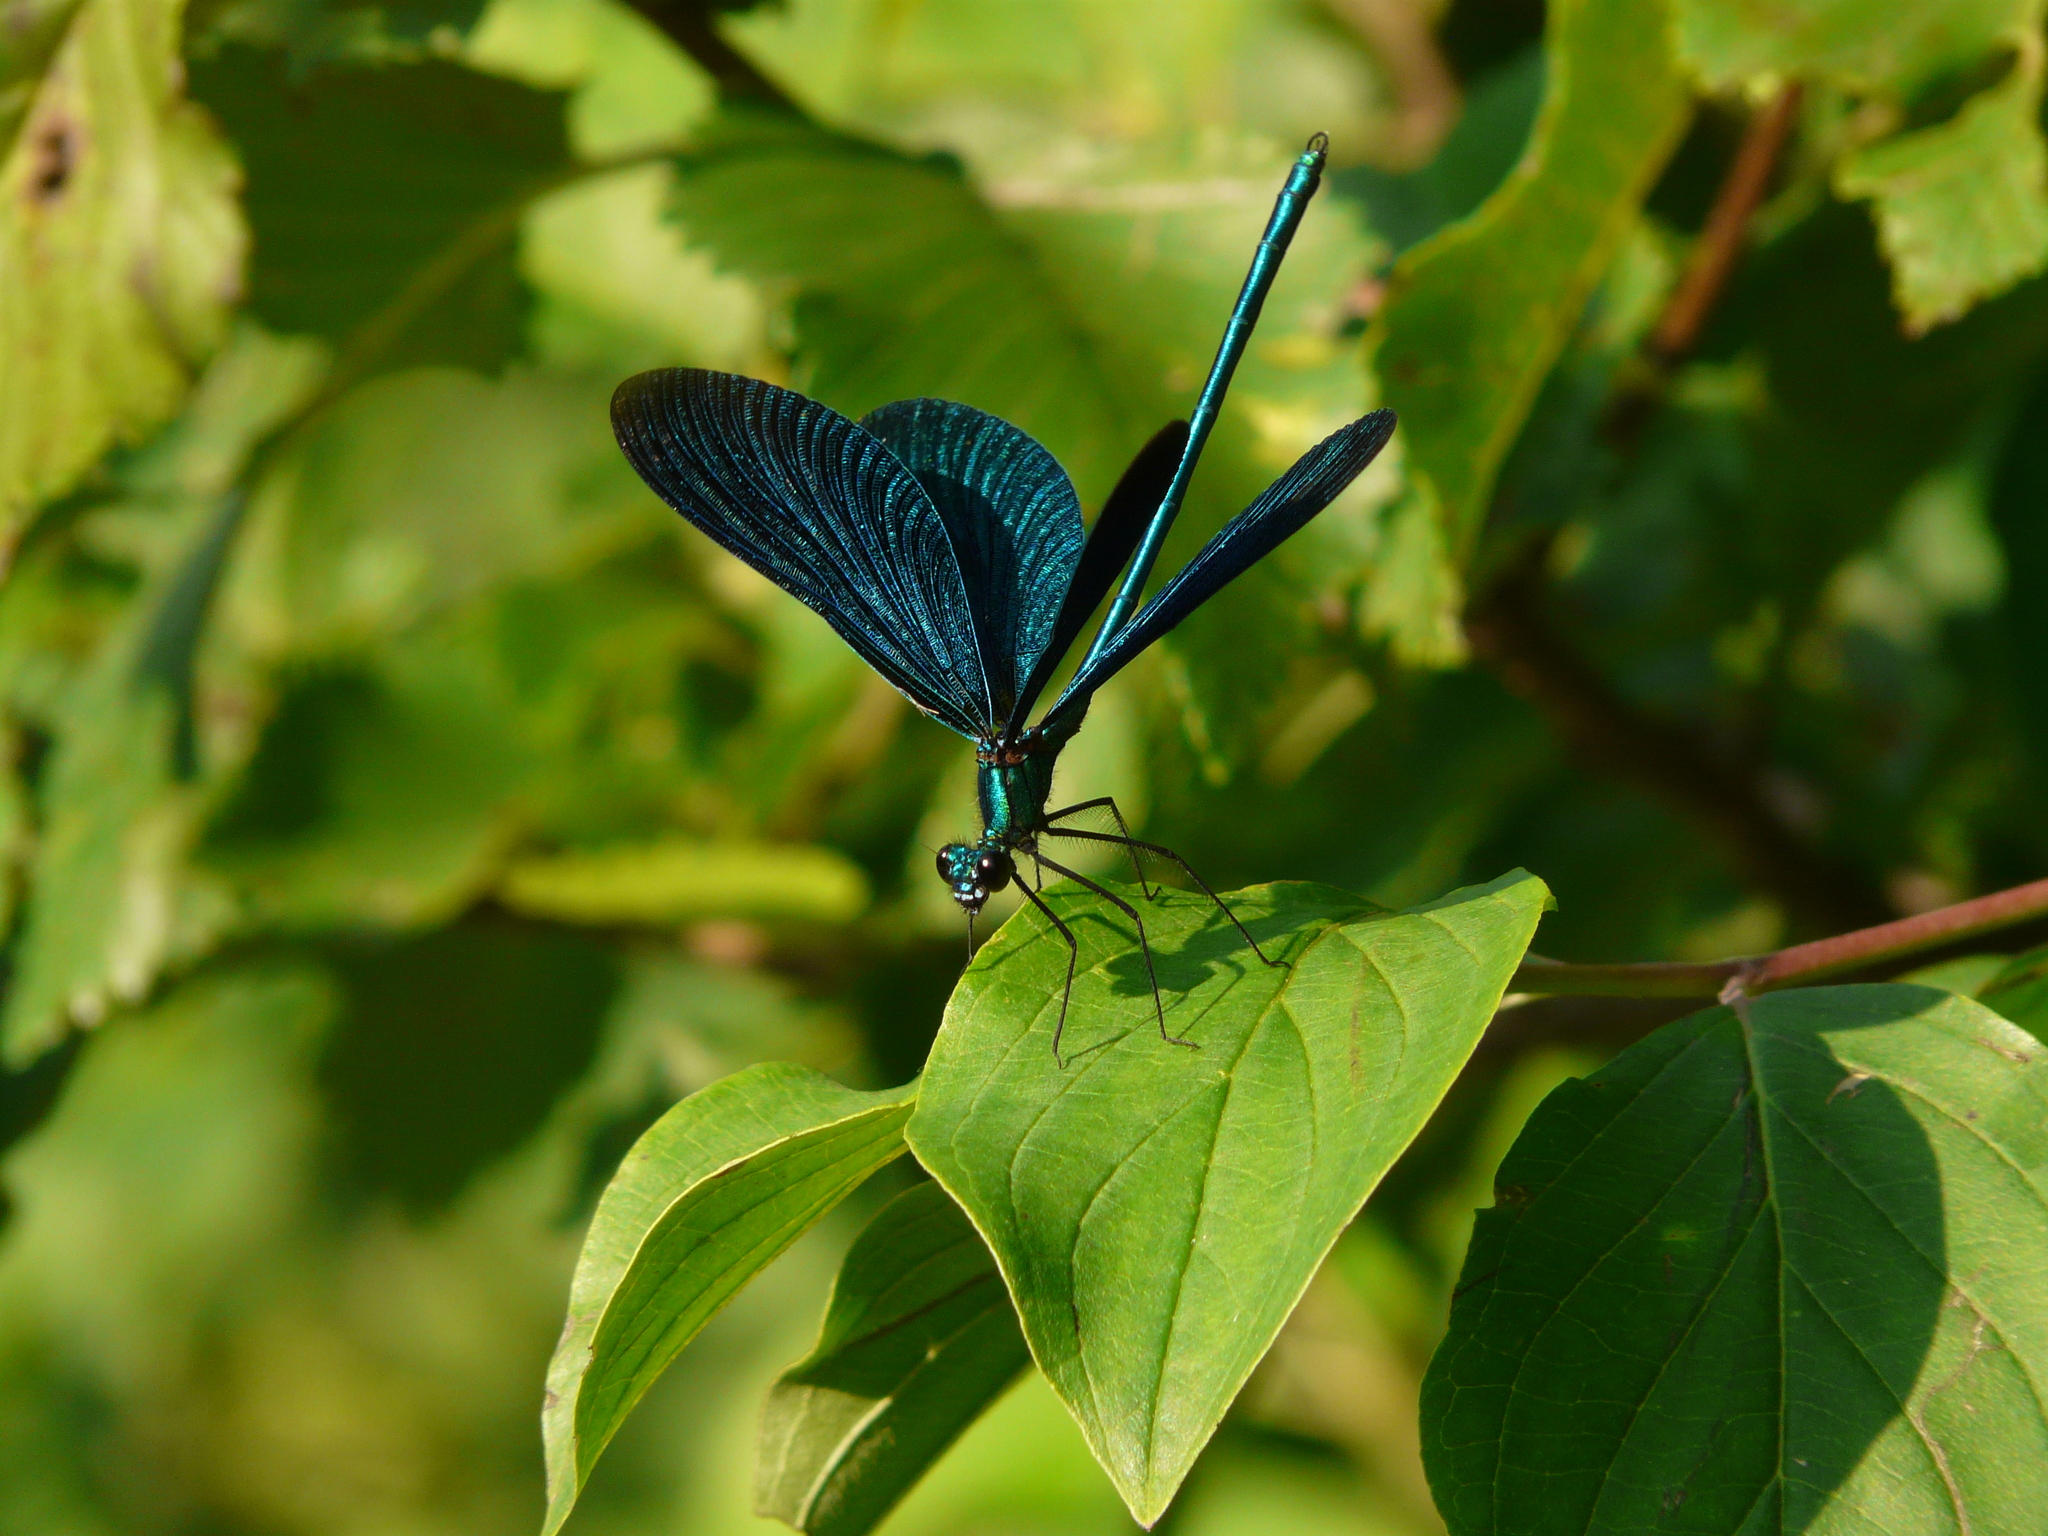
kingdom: Animalia
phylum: Arthropoda
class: Insecta
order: Odonata
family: Calopterygidae
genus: Calopteryx
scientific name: Calopteryx virgo
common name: Beautiful demoiselle
